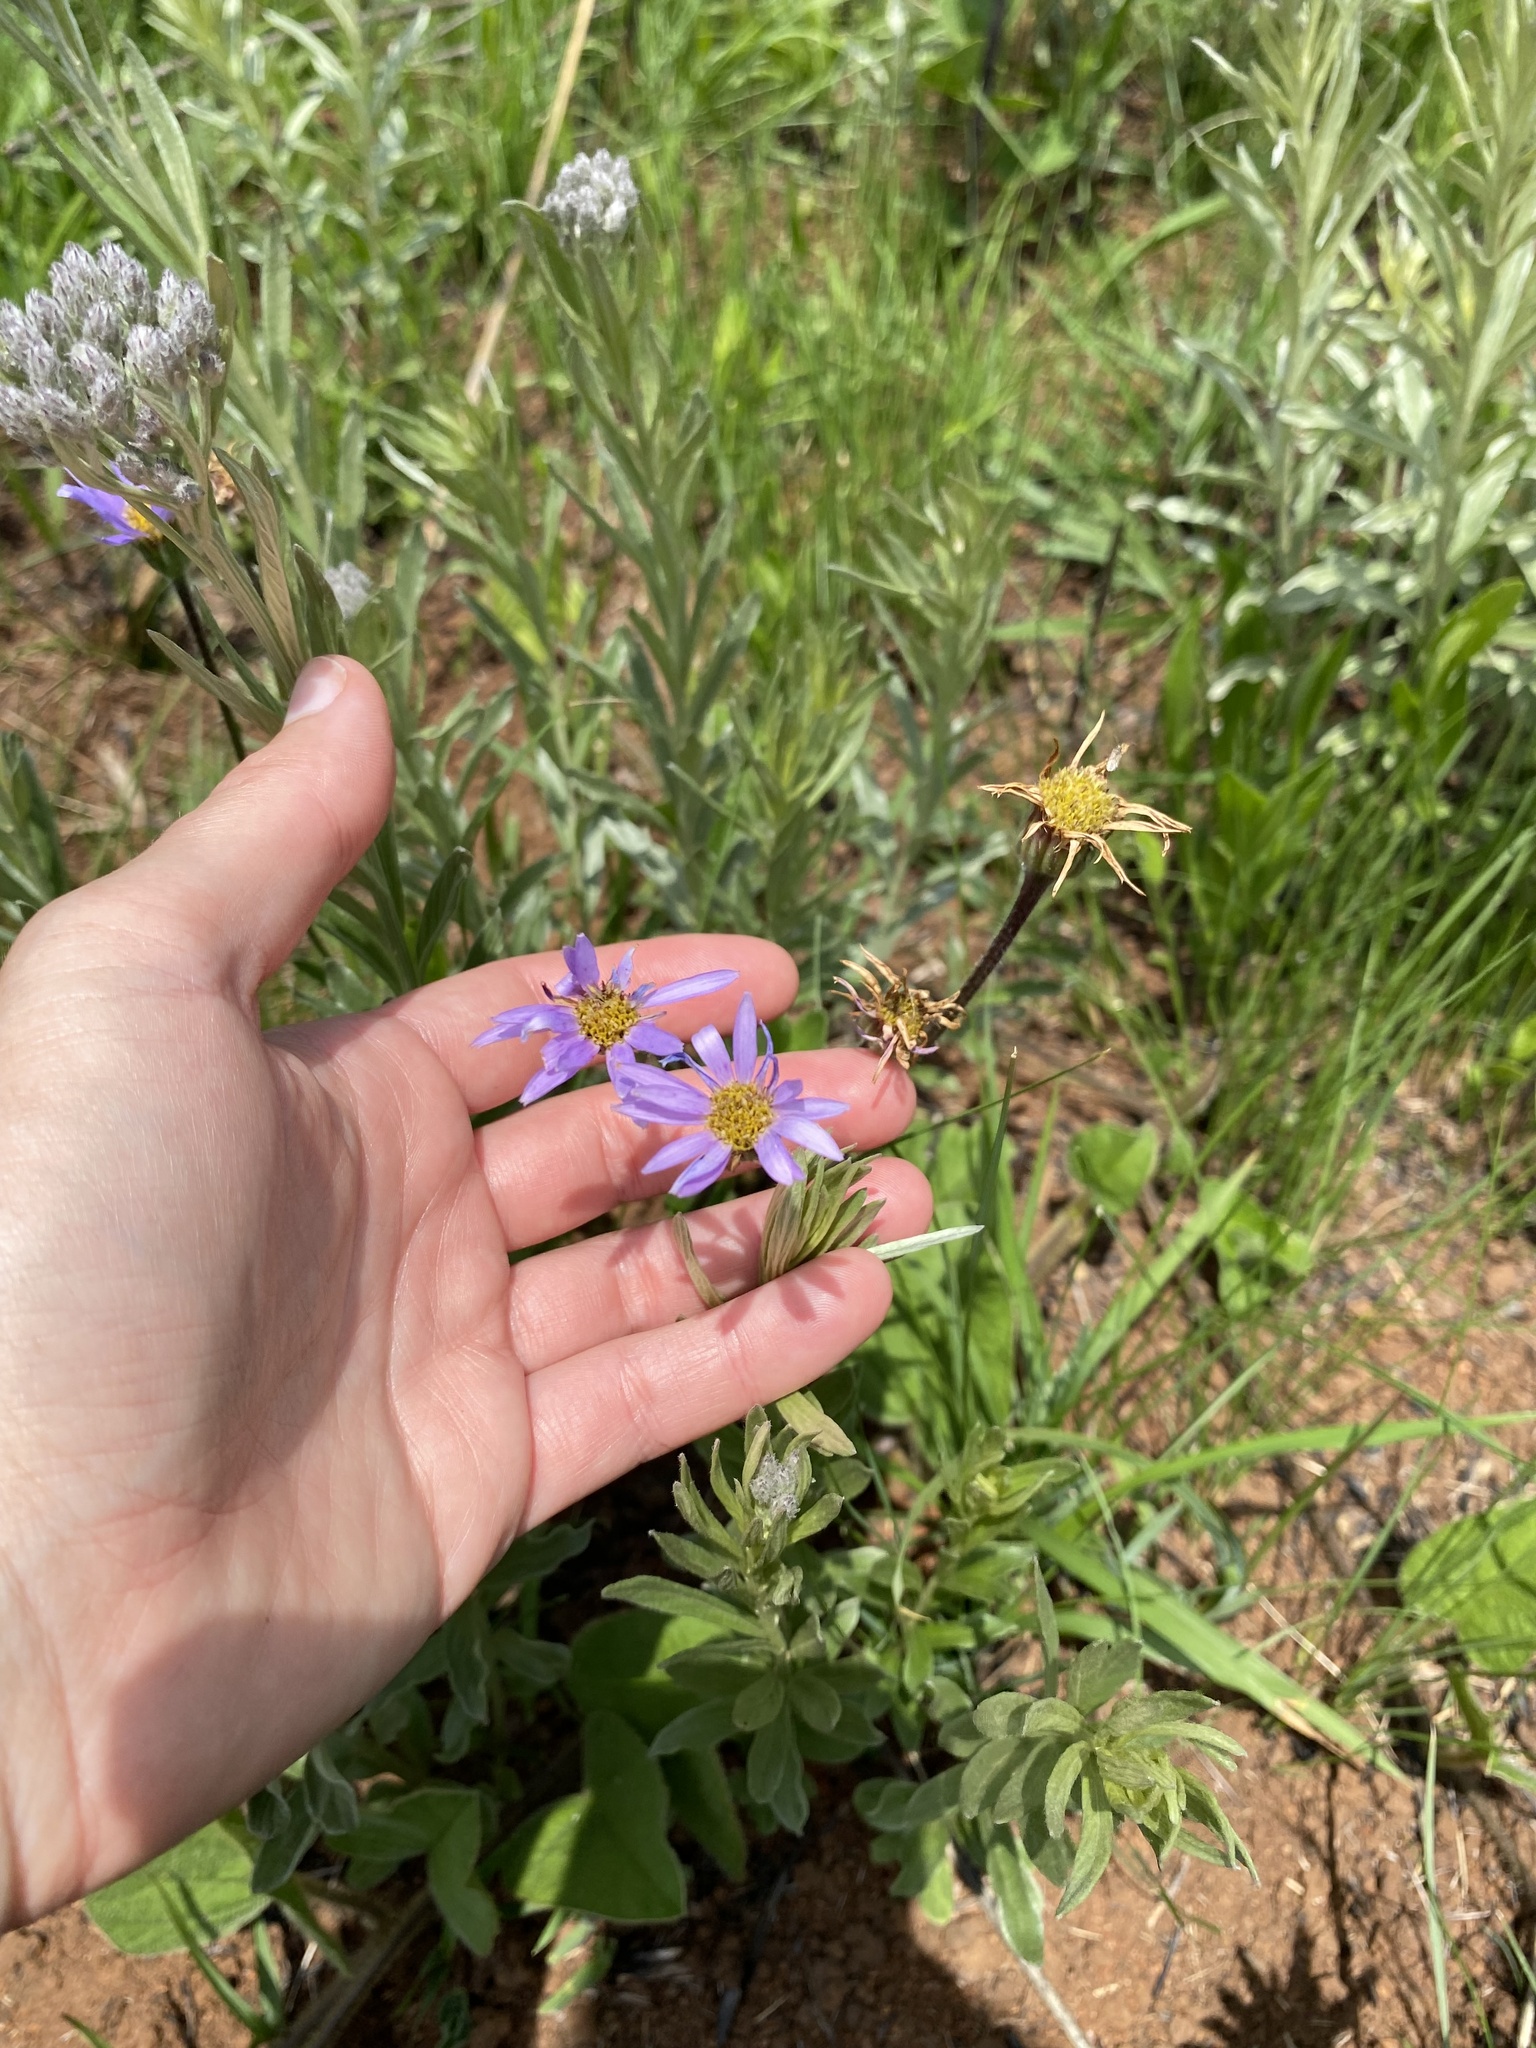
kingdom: Plantae
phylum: Tracheophyta
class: Magnoliopsida
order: Asterales
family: Asteraceae
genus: Afroaster
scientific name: Afroaster hispidus
